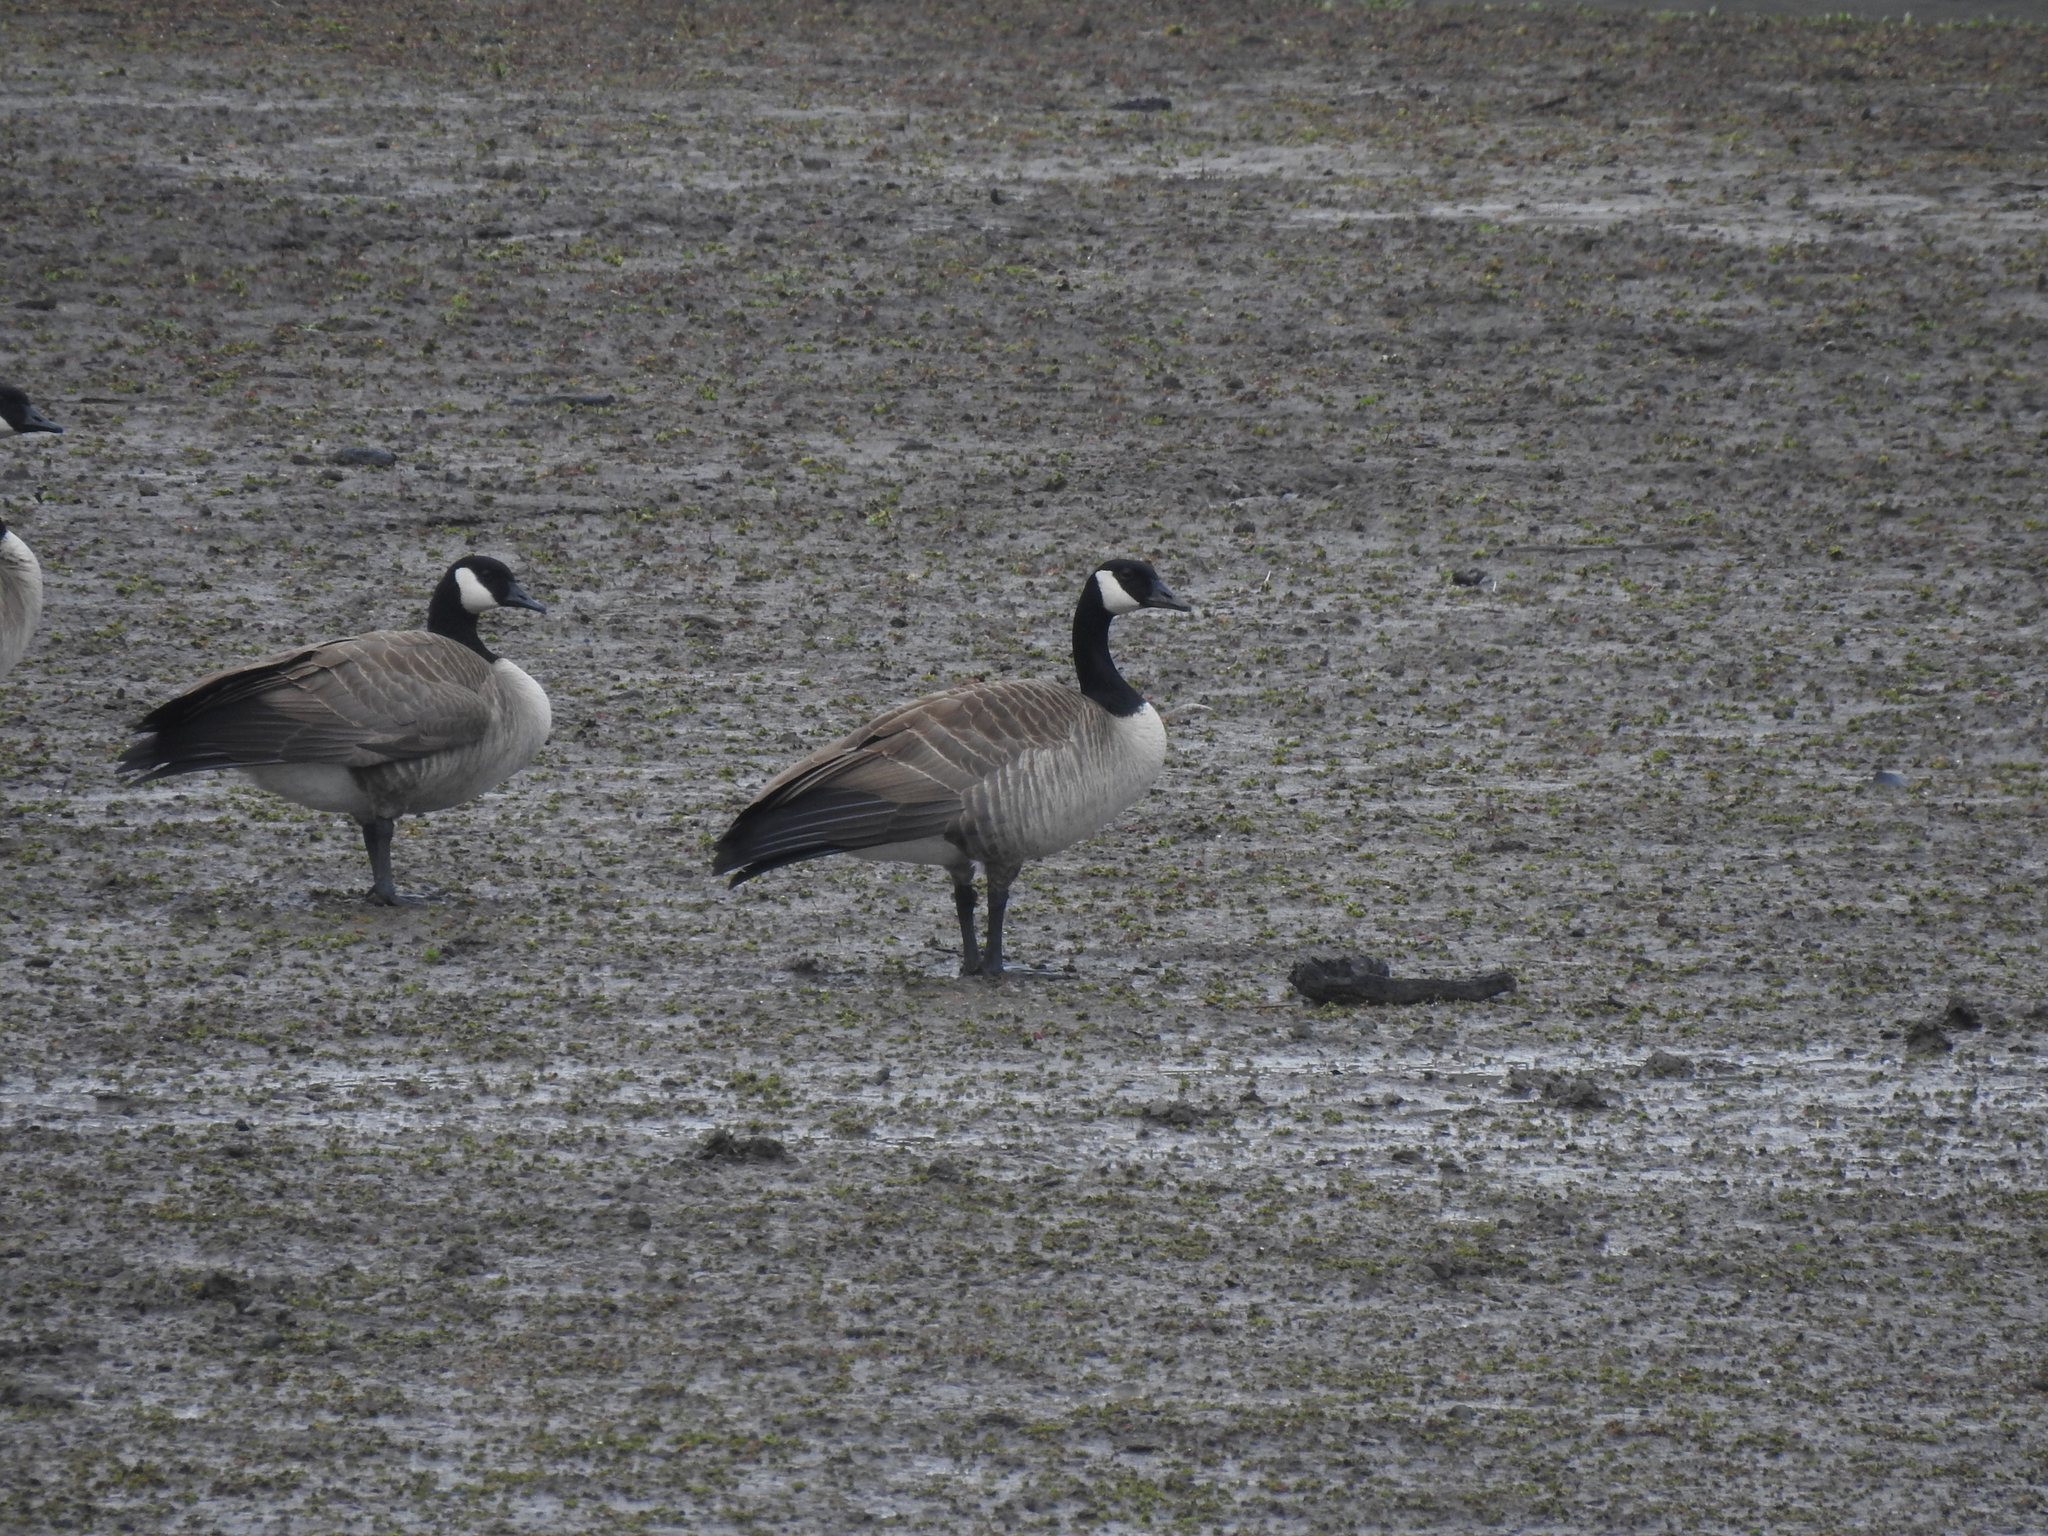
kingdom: Animalia
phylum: Chordata
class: Aves
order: Anseriformes
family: Anatidae
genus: Branta
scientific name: Branta canadensis
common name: Canada goose
